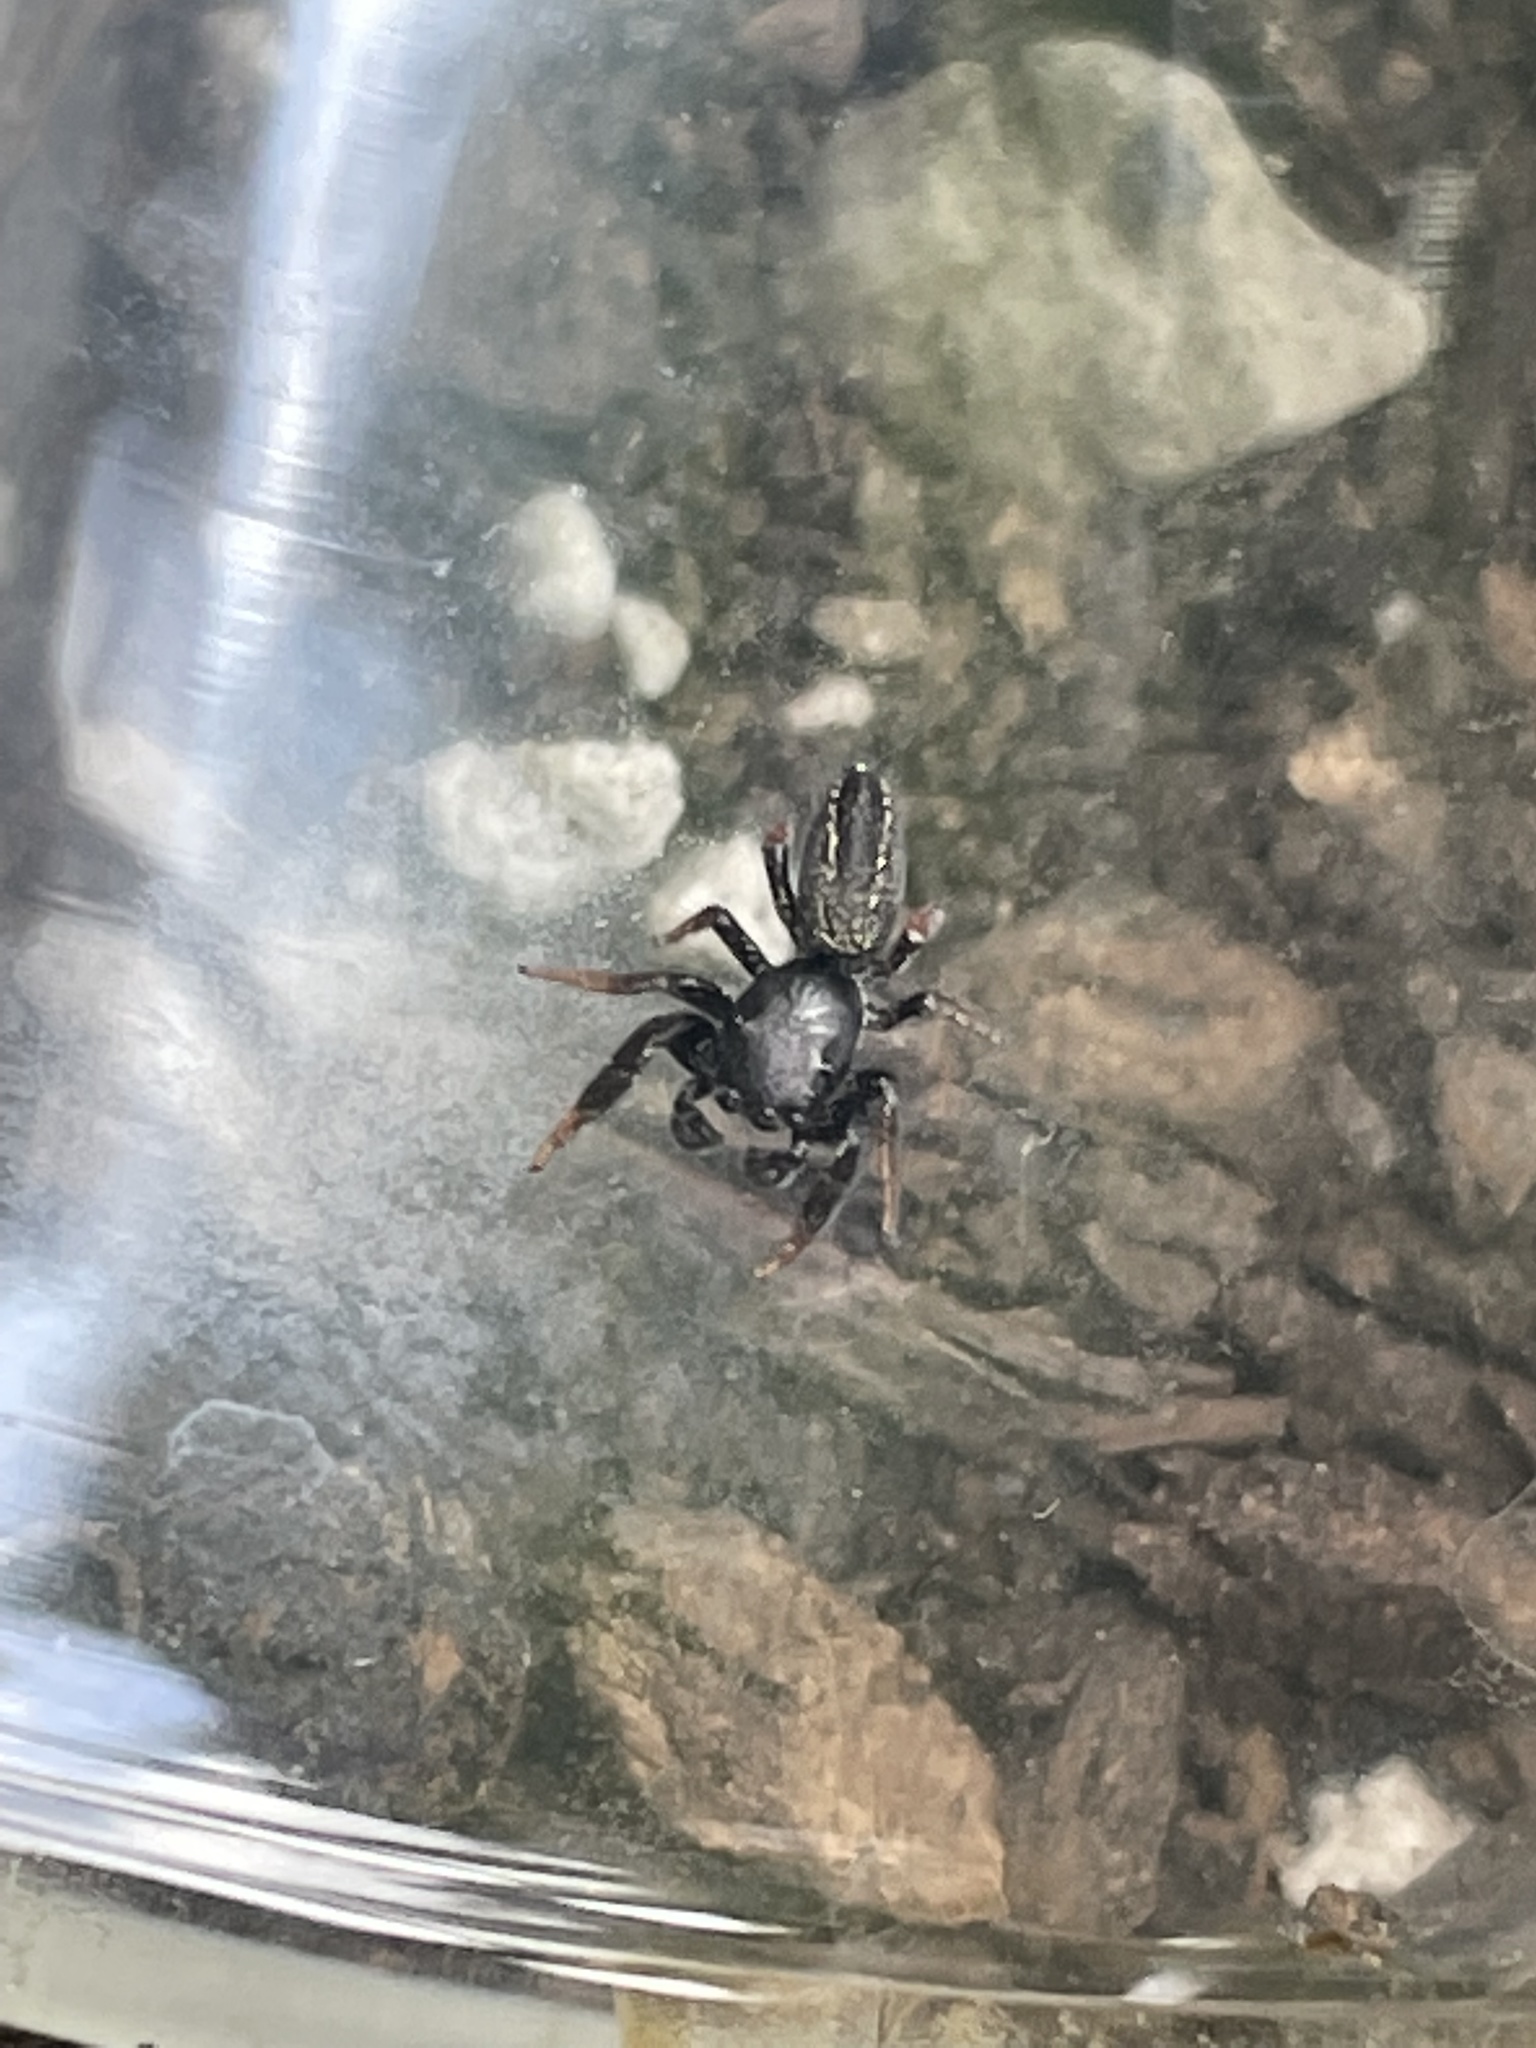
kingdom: Animalia
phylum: Arthropoda
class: Arachnida
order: Araneae
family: Salticidae
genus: Metacyrba
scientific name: Metacyrba taeniola
